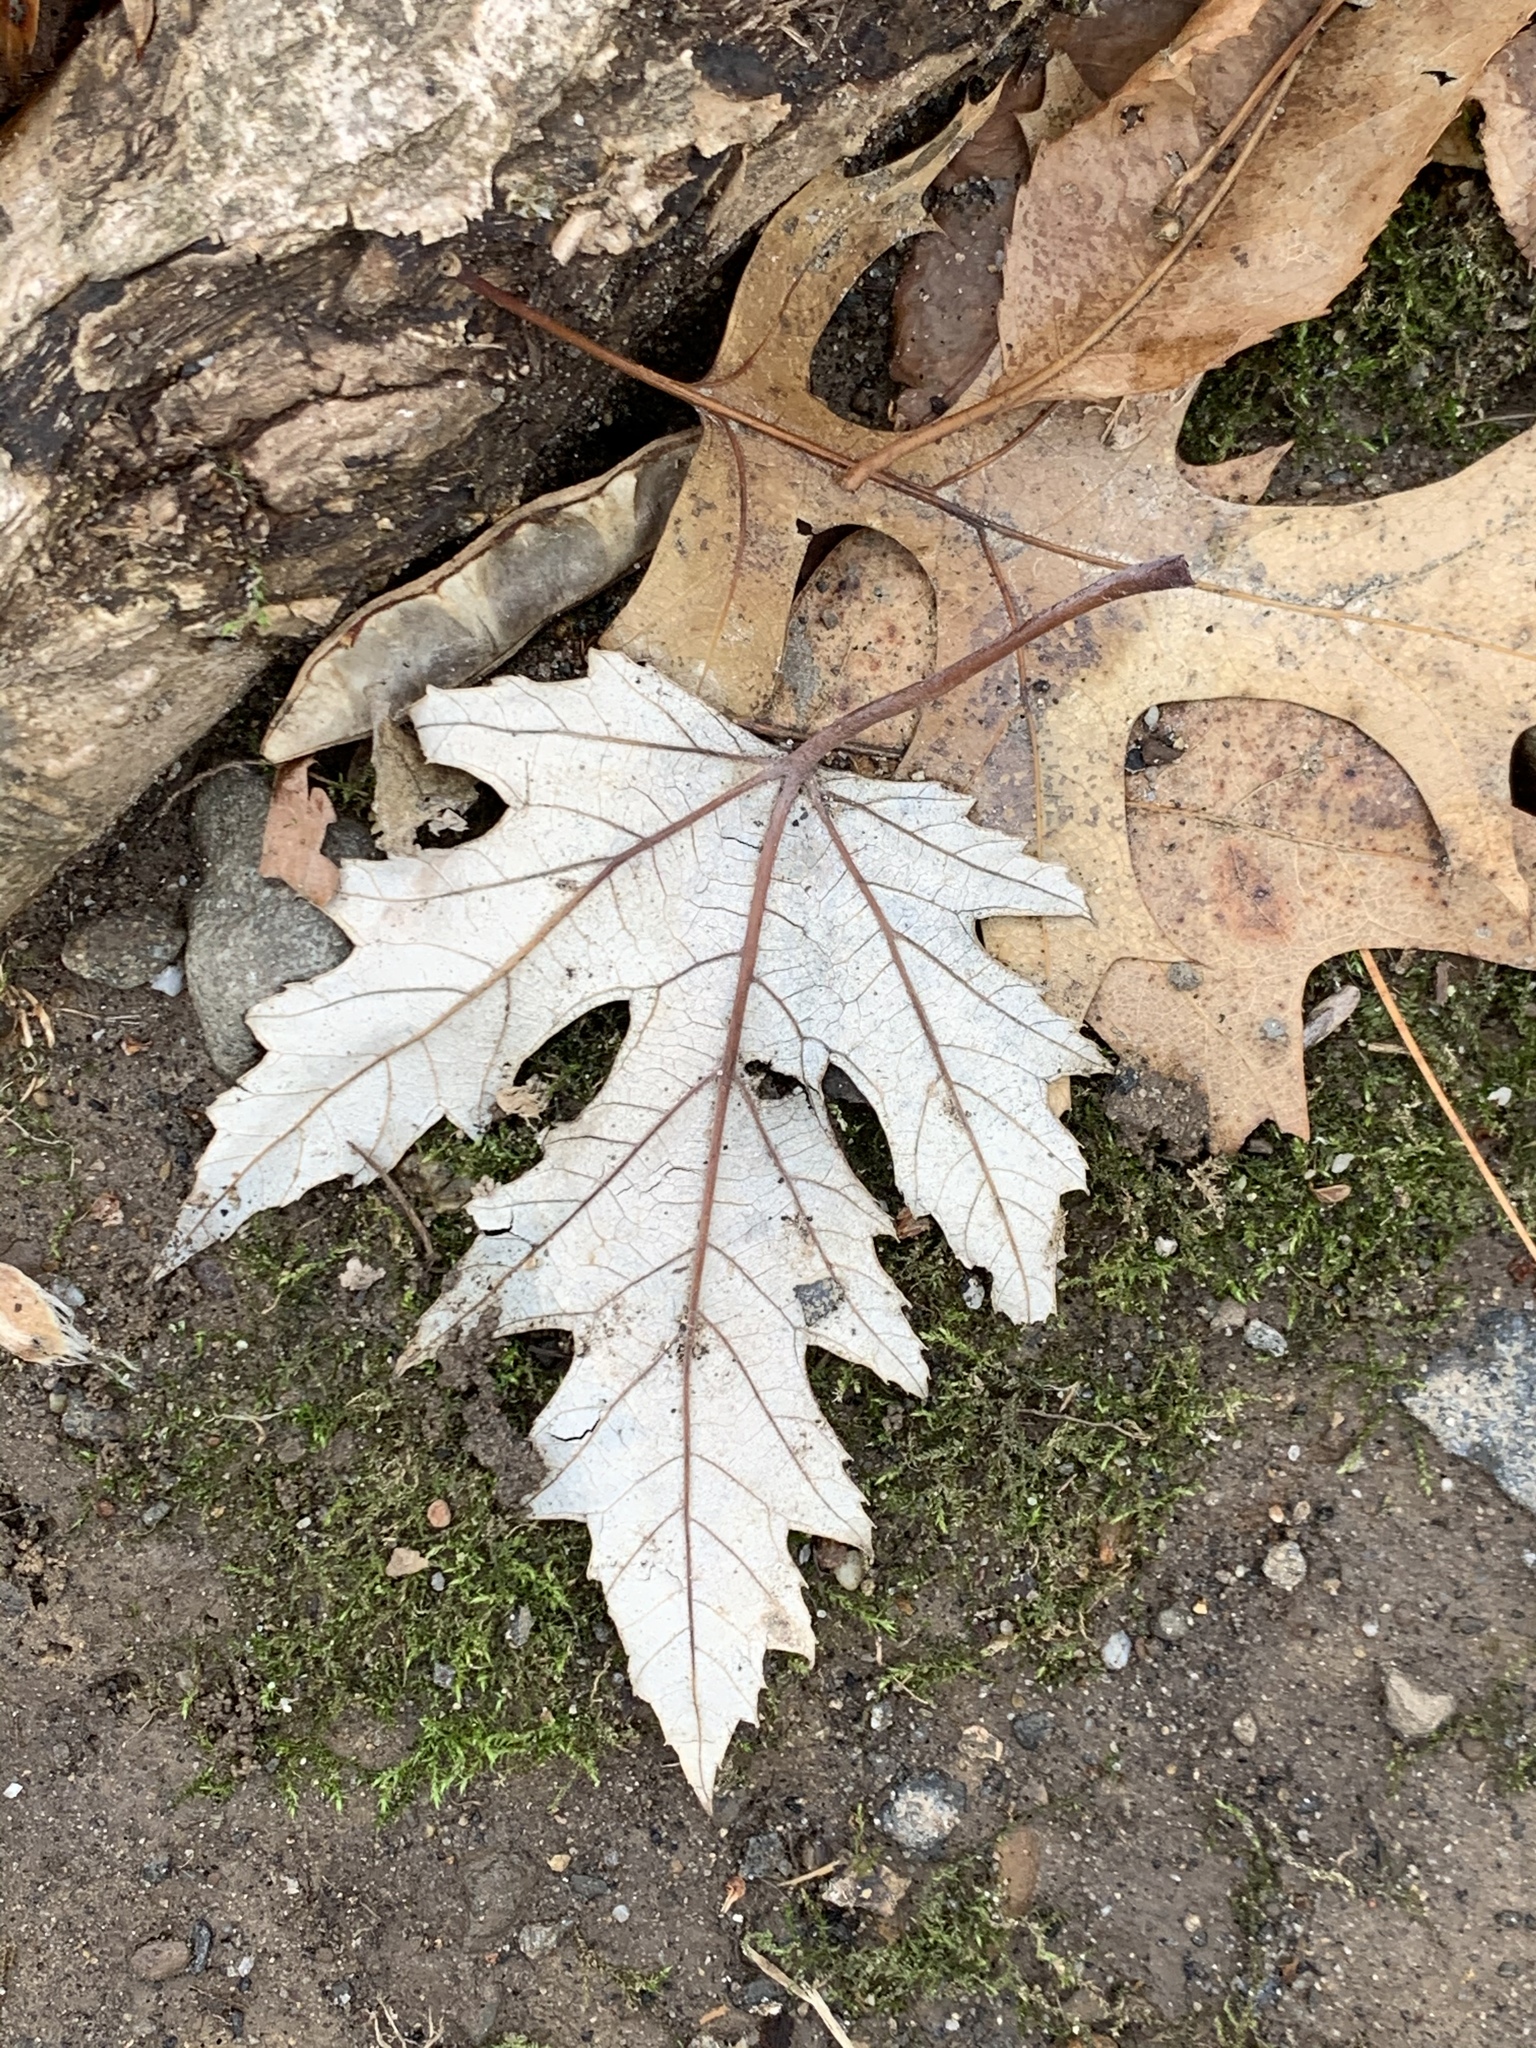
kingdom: Plantae
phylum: Tracheophyta
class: Magnoliopsida
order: Sapindales
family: Sapindaceae
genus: Acer
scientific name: Acer saccharinum
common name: Silver maple
